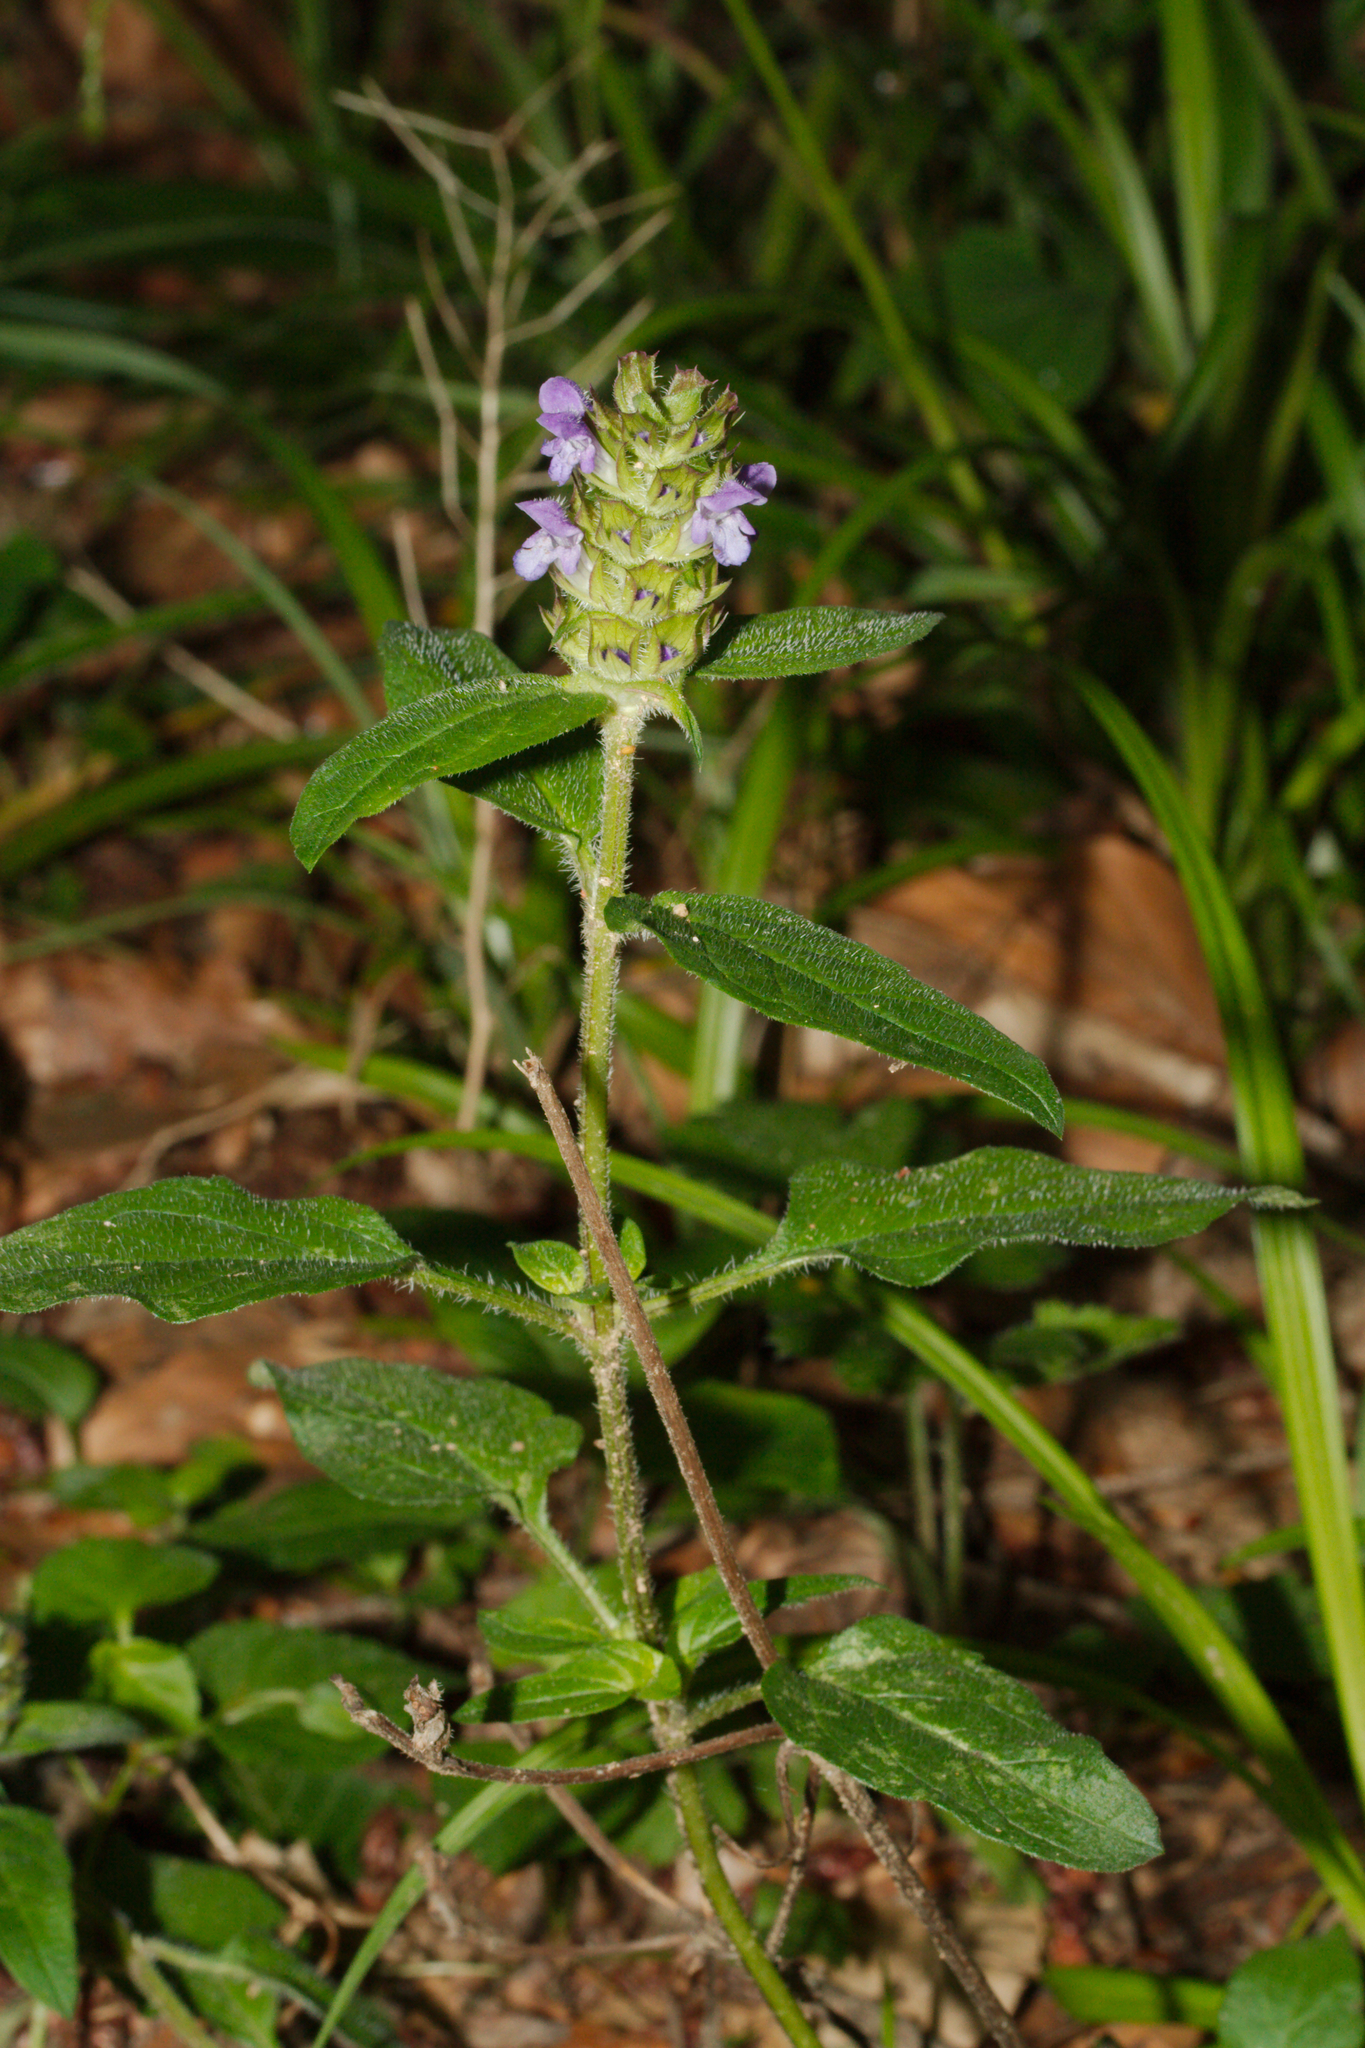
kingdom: Plantae
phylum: Tracheophyta
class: Magnoliopsida
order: Lamiales
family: Lamiaceae
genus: Prunella
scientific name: Prunella vulgaris
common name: Heal-all
